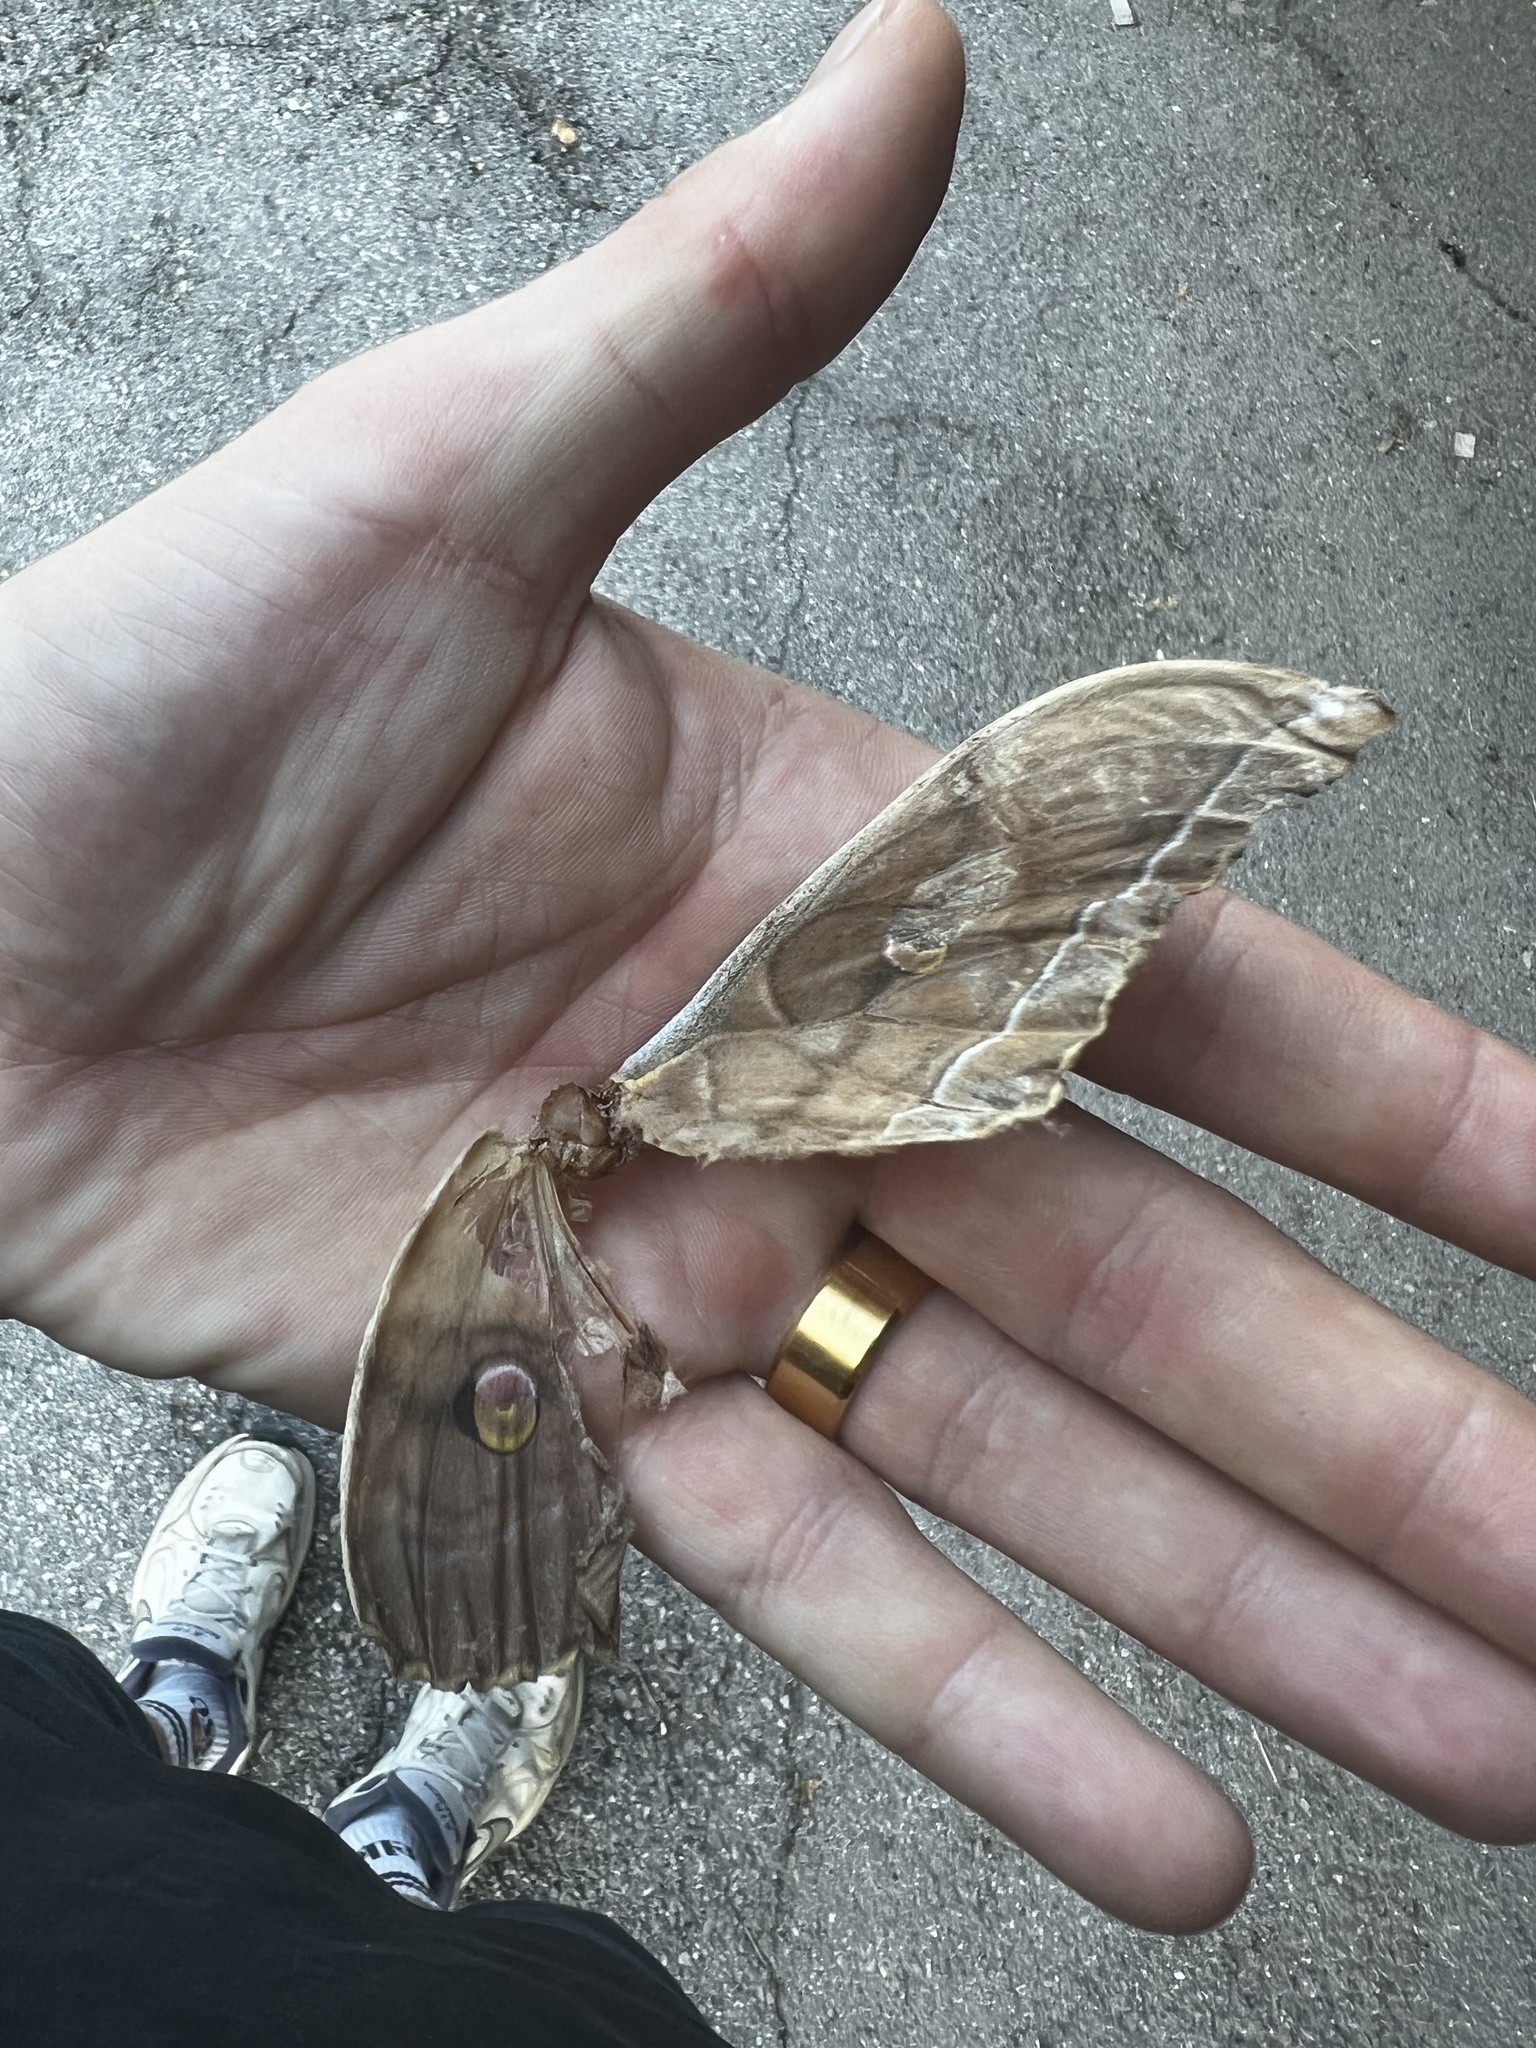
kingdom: Animalia
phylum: Arthropoda
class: Insecta
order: Lepidoptera
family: Saturniidae
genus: Antheraea
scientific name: Antheraea yamamai
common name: Japanese oak silk moth
